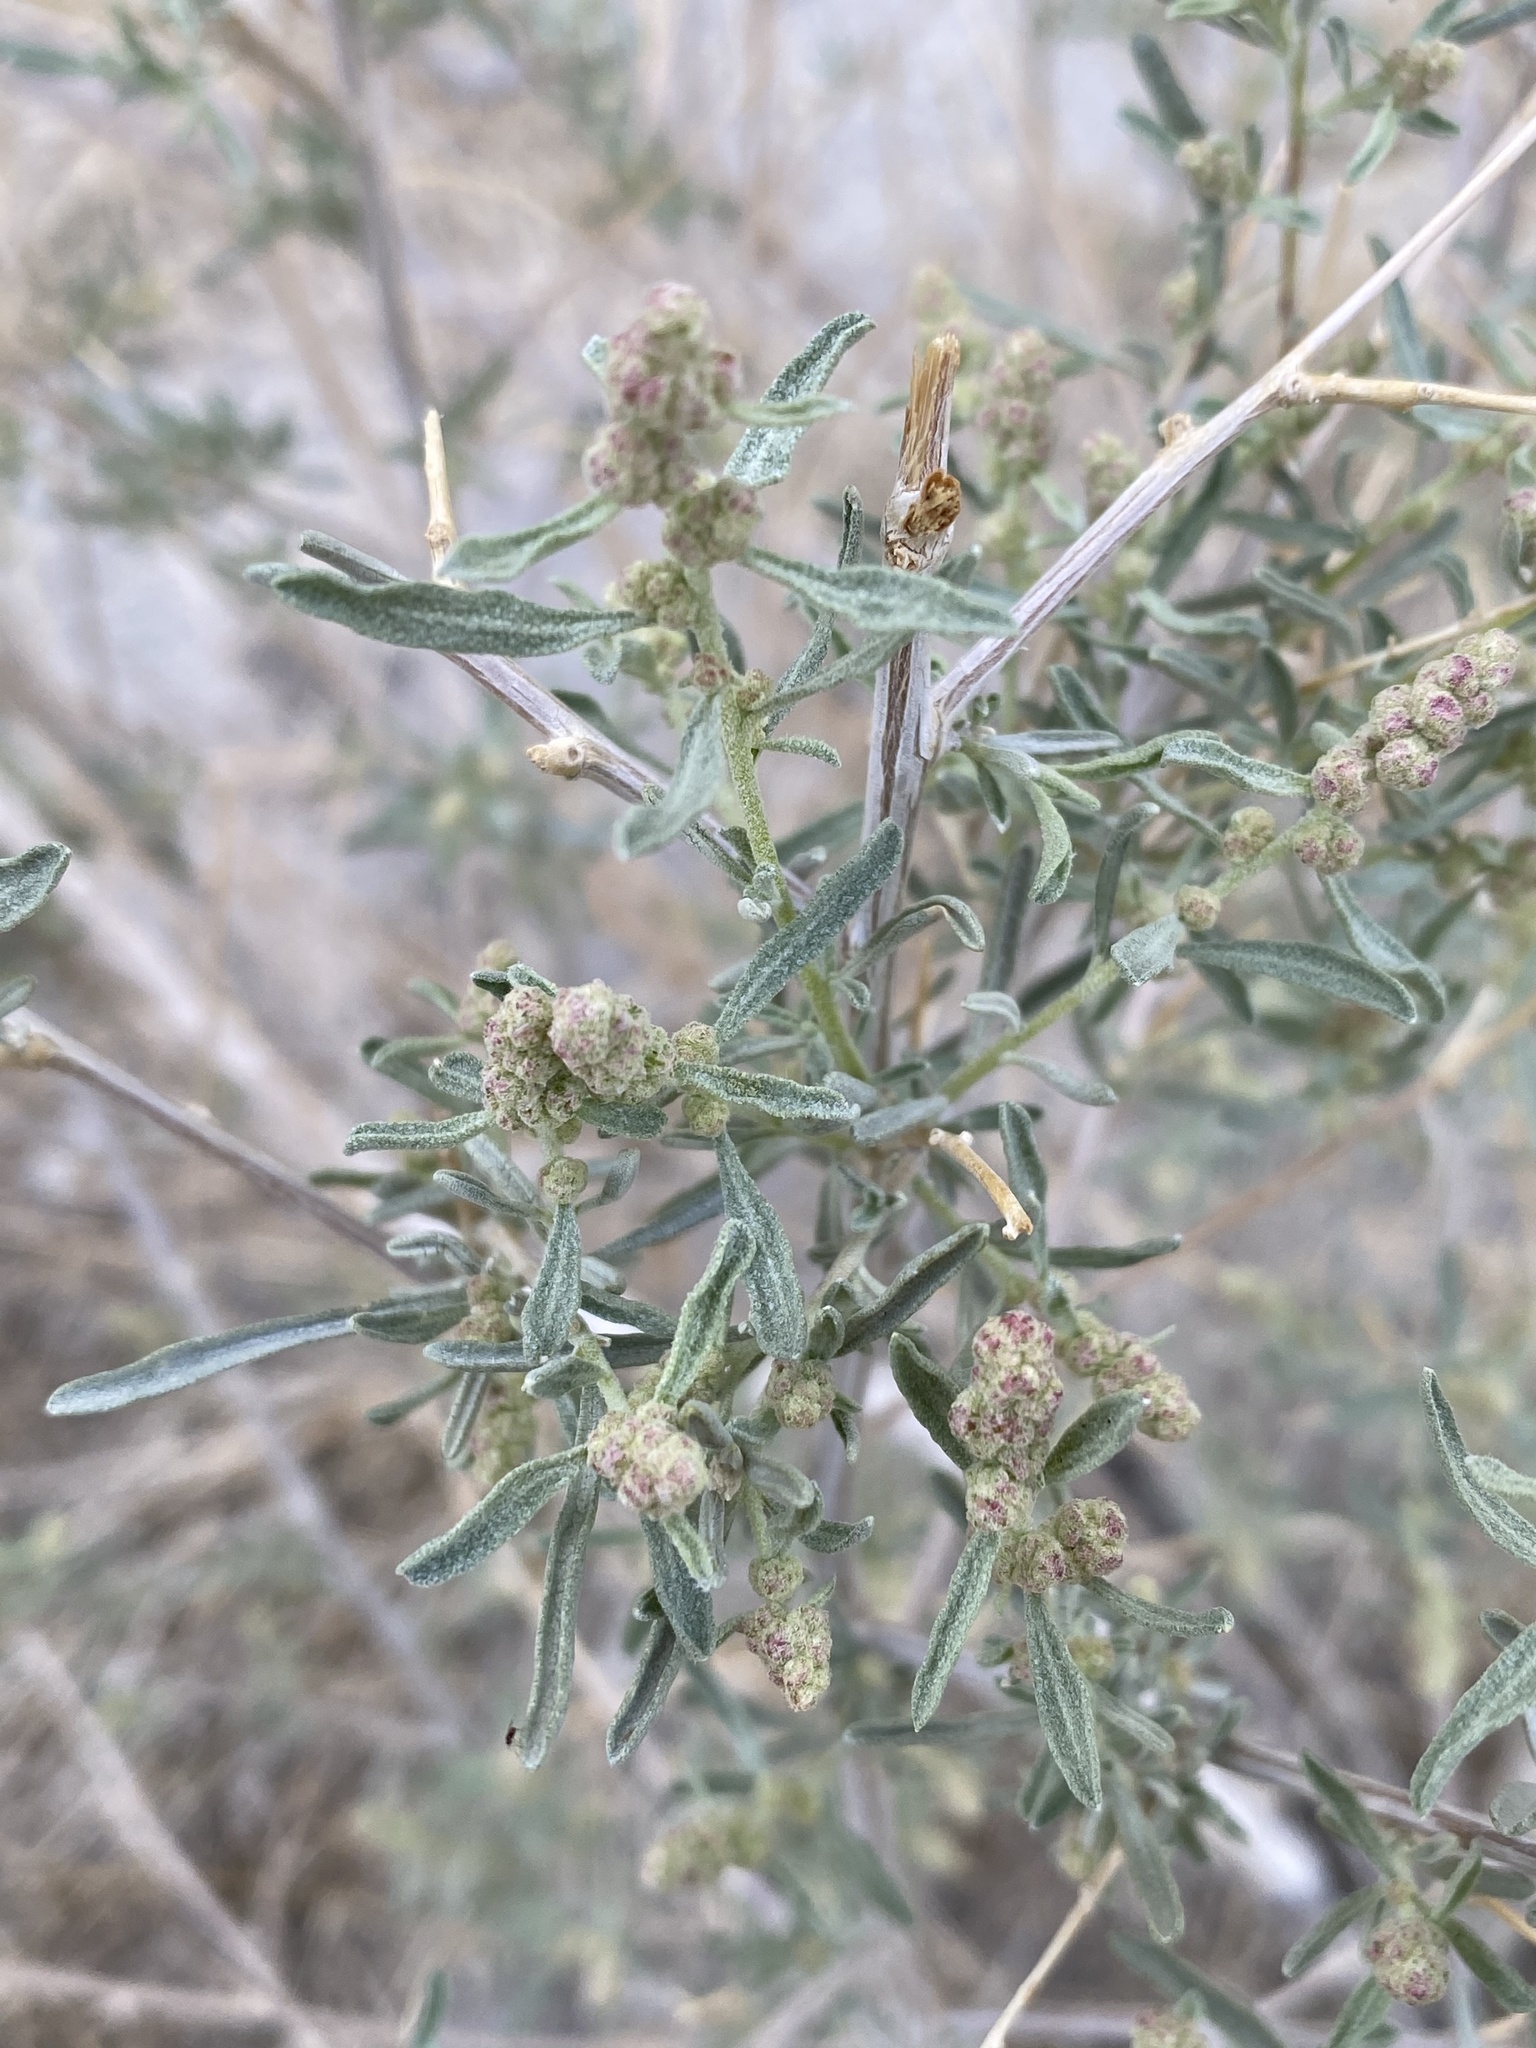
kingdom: Plantae
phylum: Tracheophyta
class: Magnoliopsida
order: Caryophyllales
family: Amaranthaceae
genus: Atriplex
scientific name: Atriplex canescens
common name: Four-wing saltbush
